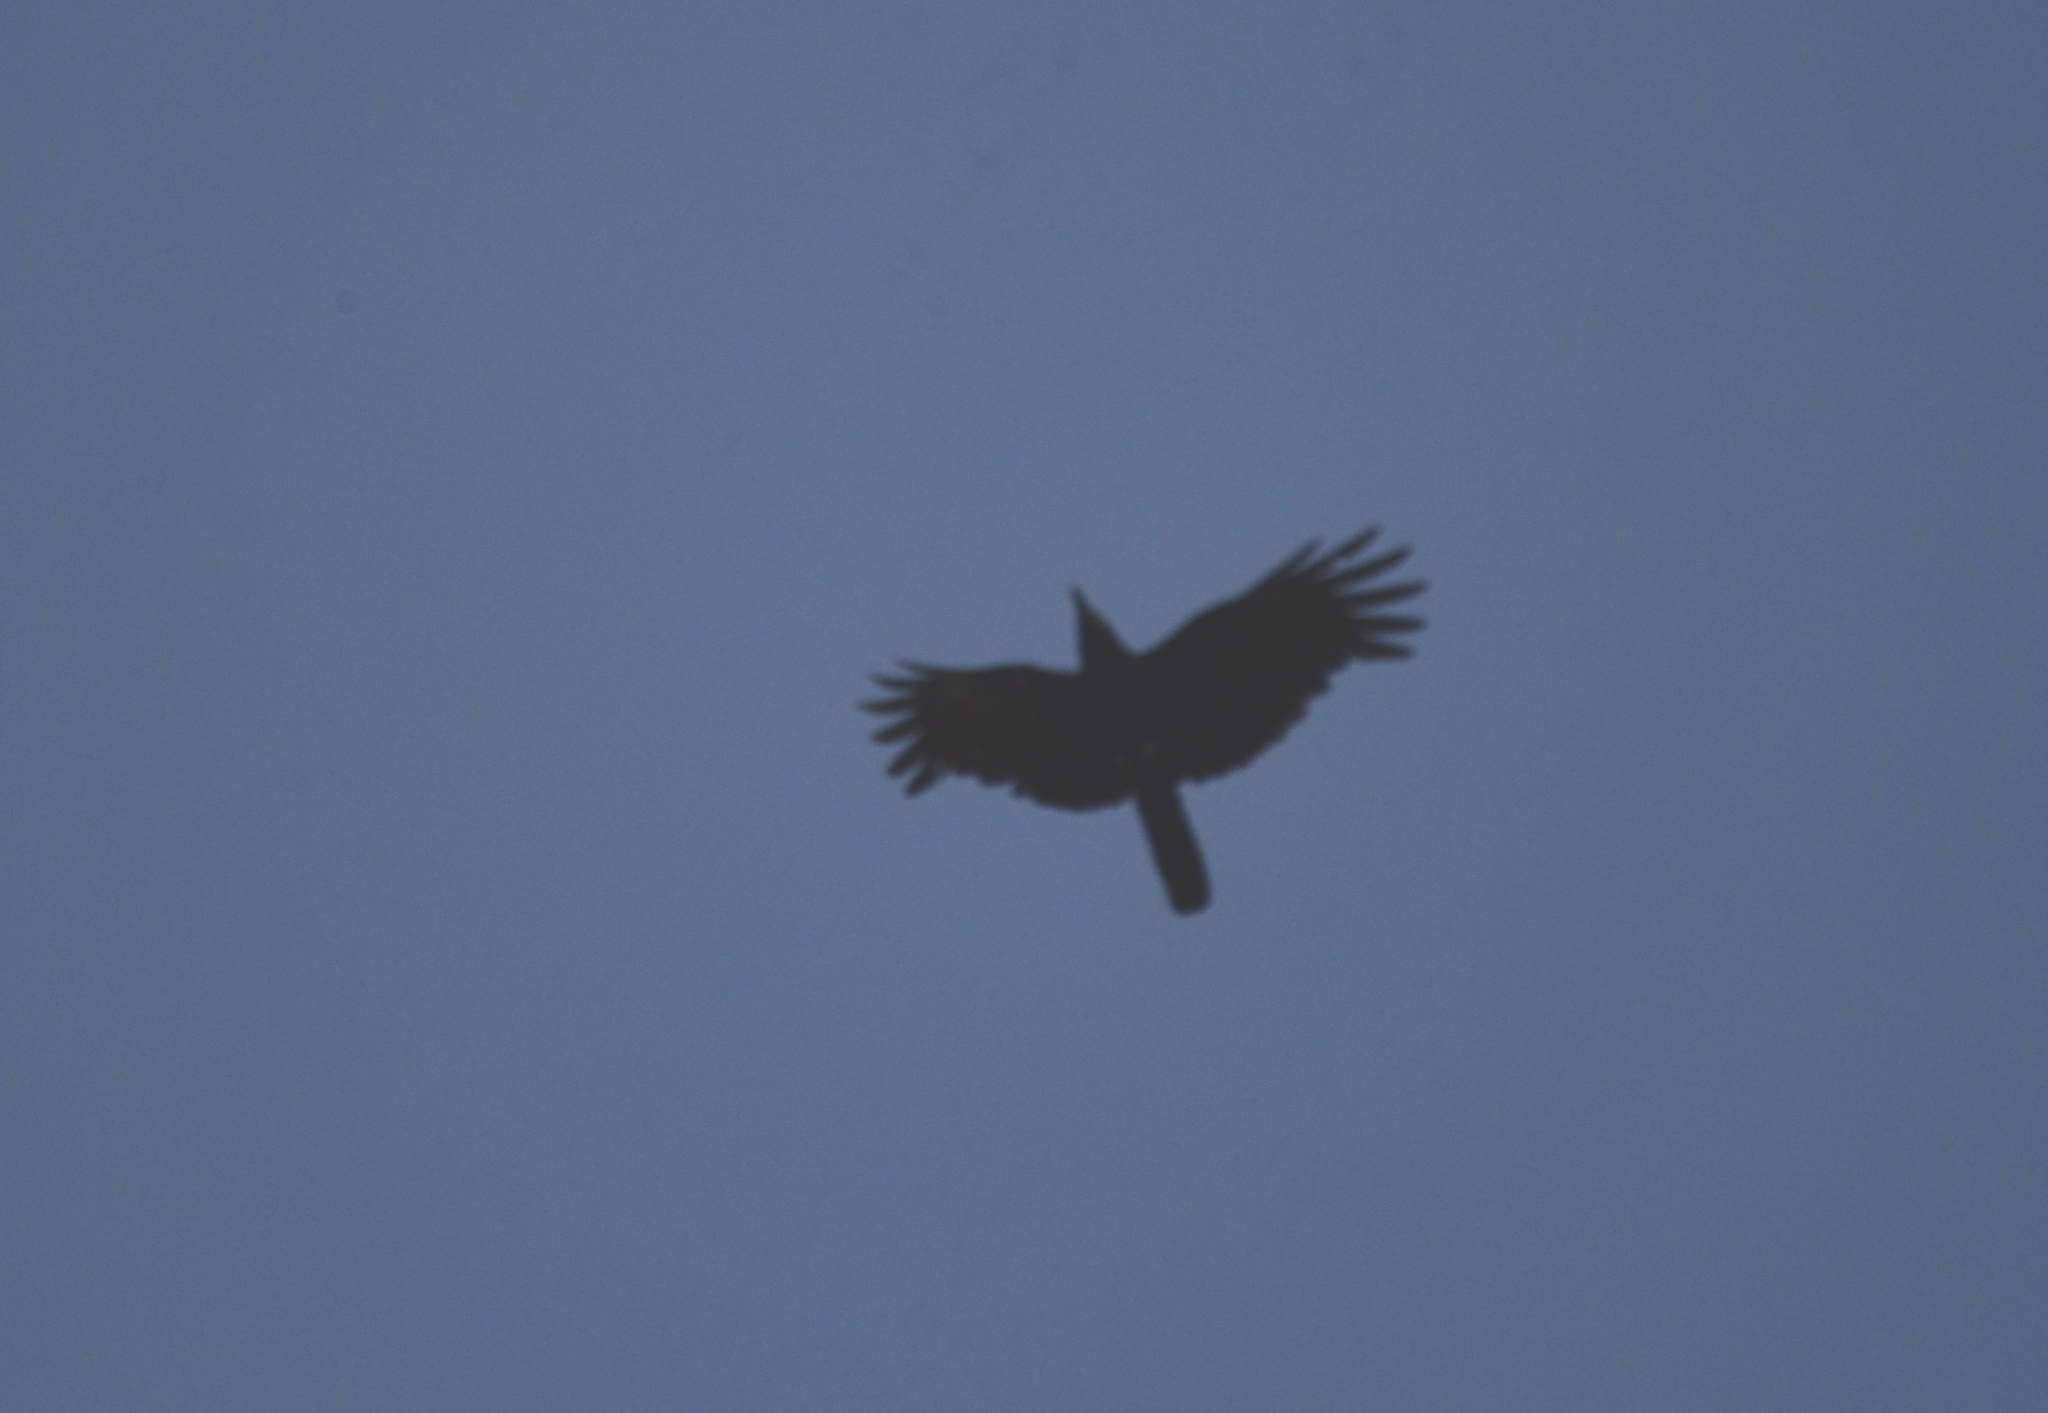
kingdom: Animalia
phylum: Chordata
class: Aves
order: Passeriformes
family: Corvidae
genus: Corvus
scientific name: Corvus splendens
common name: House crow
